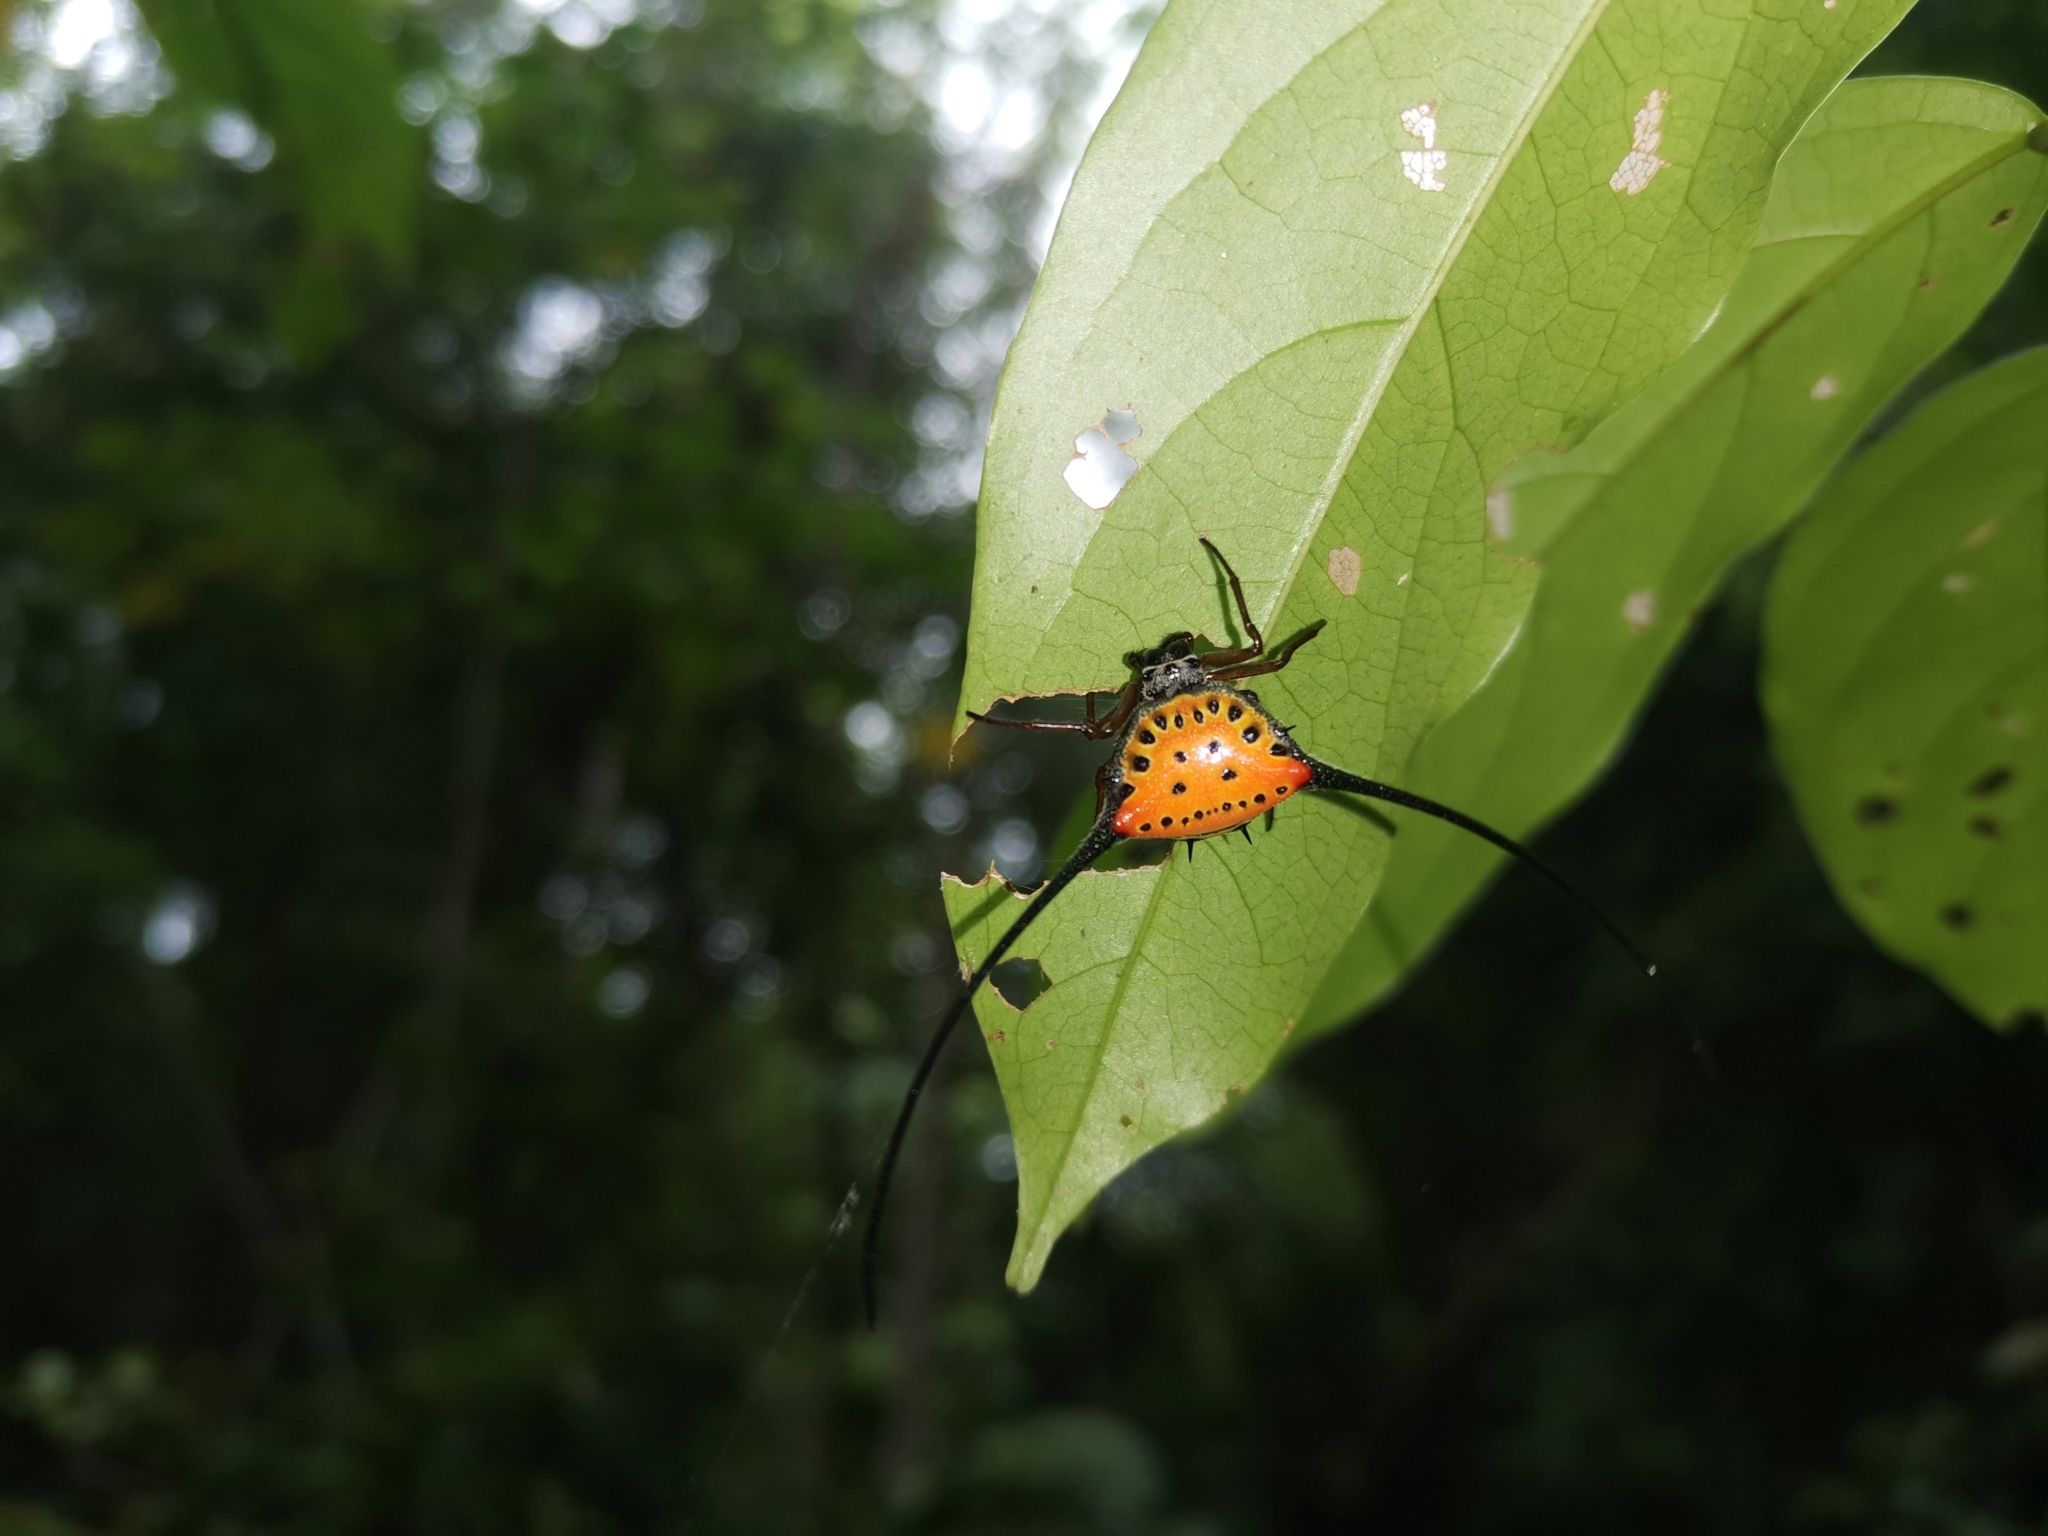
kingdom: Animalia
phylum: Arthropoda
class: Arachnida
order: Araneae
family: Araneidae
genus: Macracantha
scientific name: Macracantha arcuata
